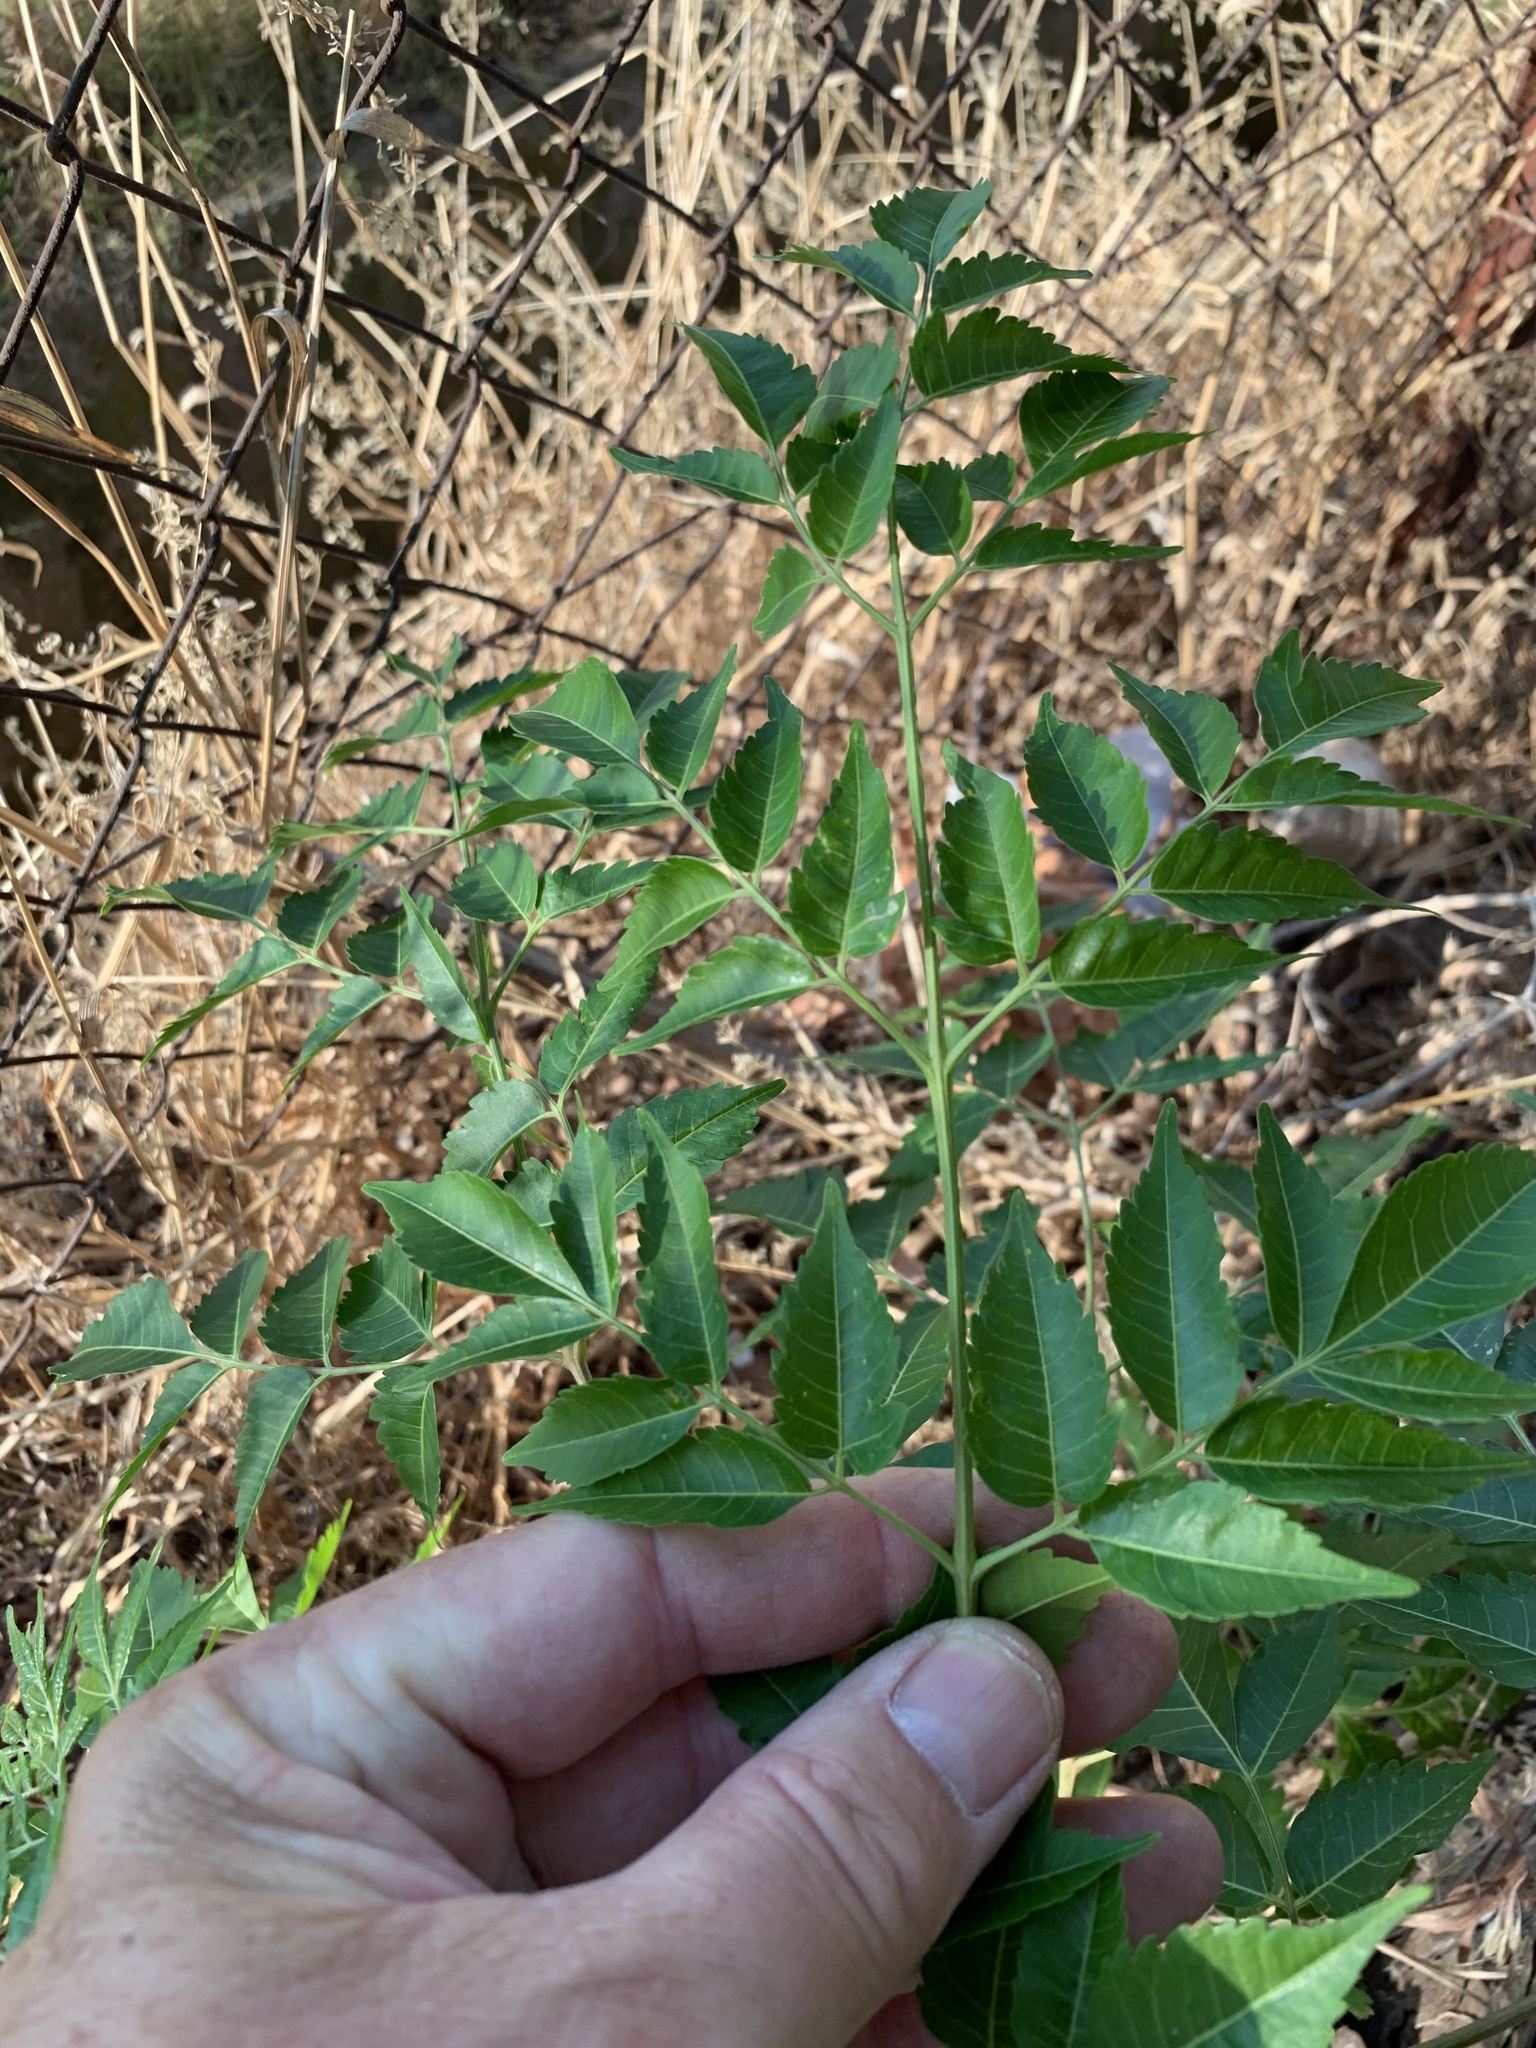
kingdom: Plantae
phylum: Tracheophyta
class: Magnoliopsida
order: Sapindales
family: Meliaceae
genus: Melia
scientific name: Melia azedarach
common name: Chinaberrytree
